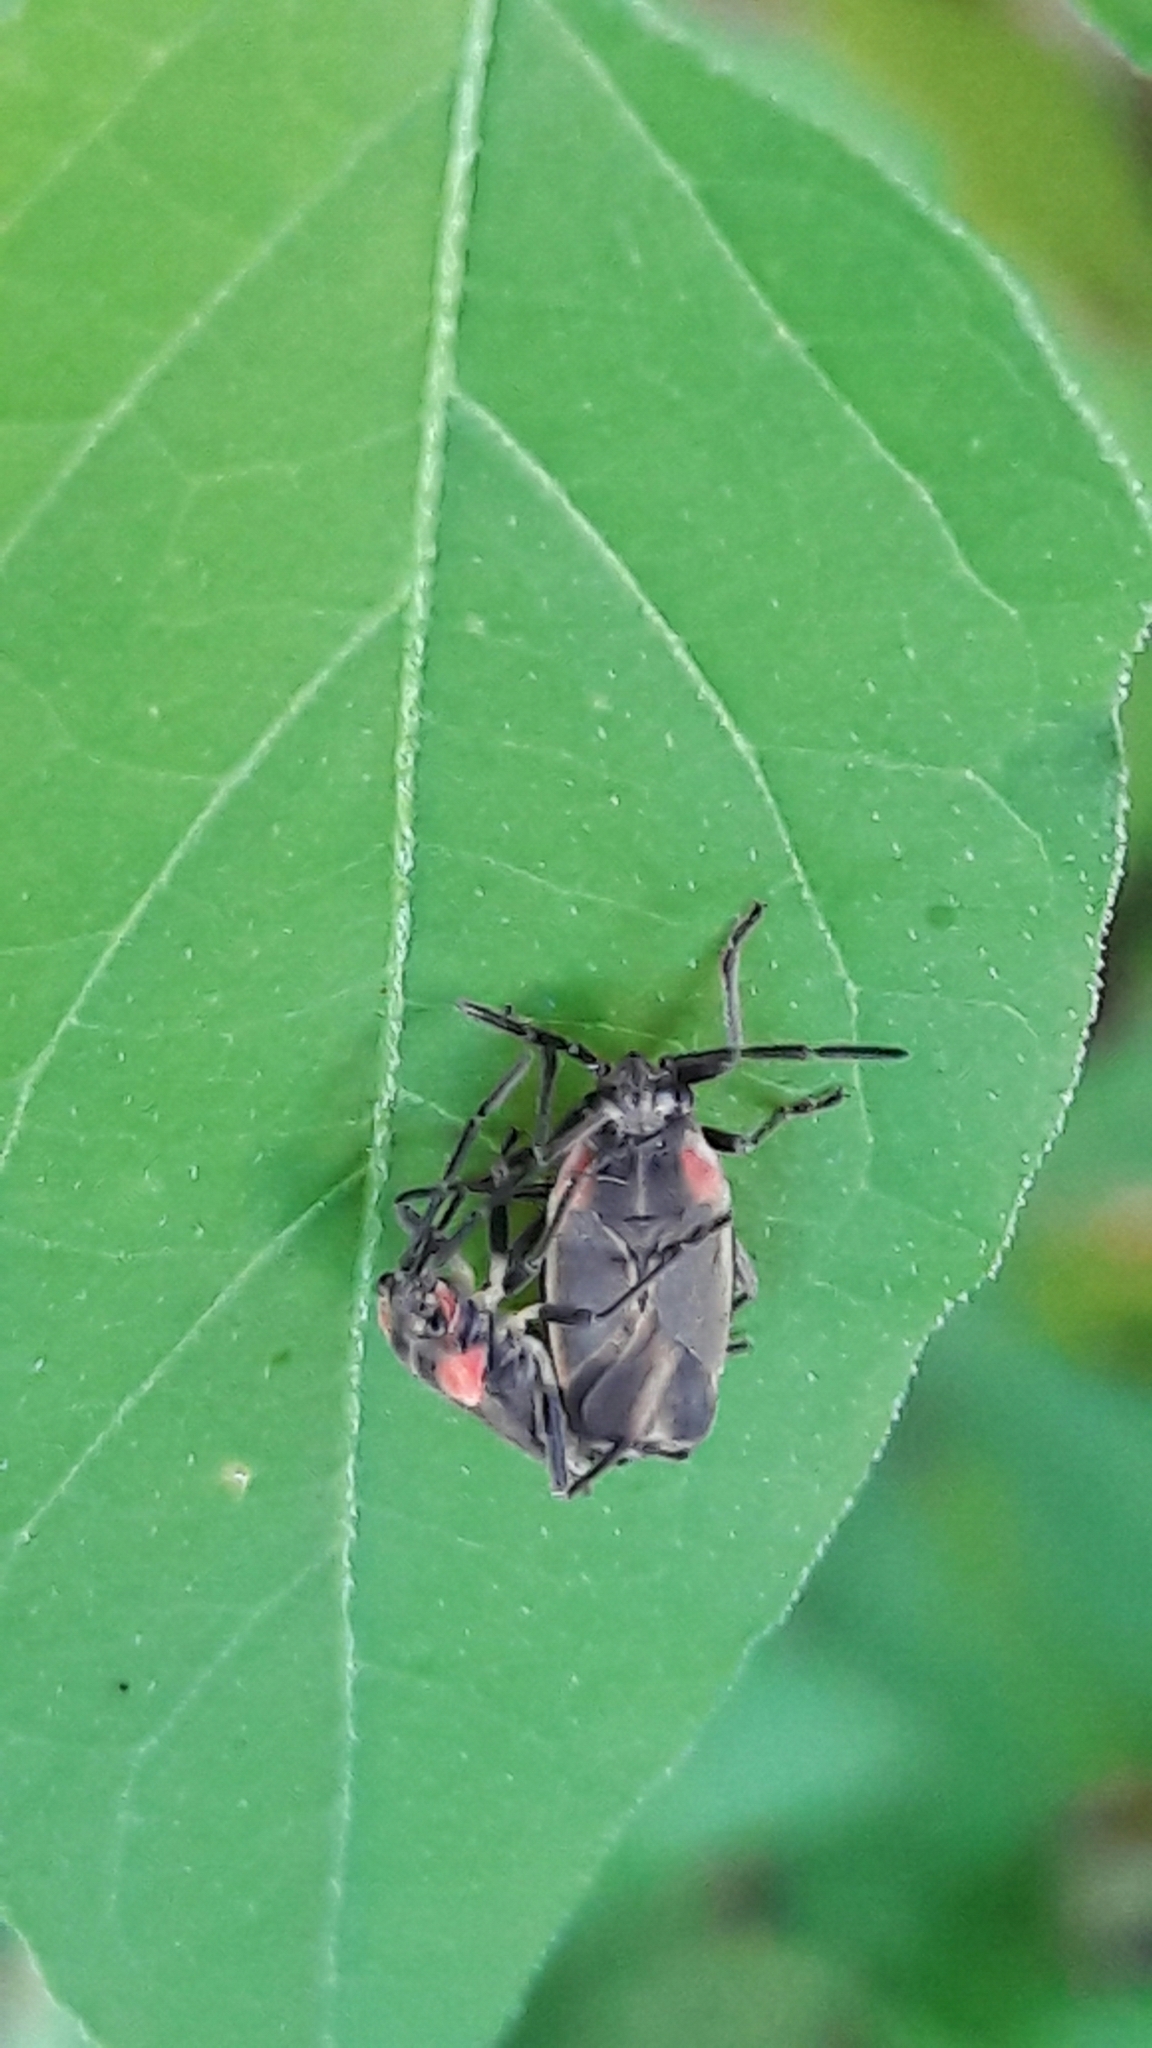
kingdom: Animalia
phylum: Arthropoda
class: Insecta
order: Hemiptera
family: Lygaeidae
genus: Acroleucus
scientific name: Acroleucus coxalis
